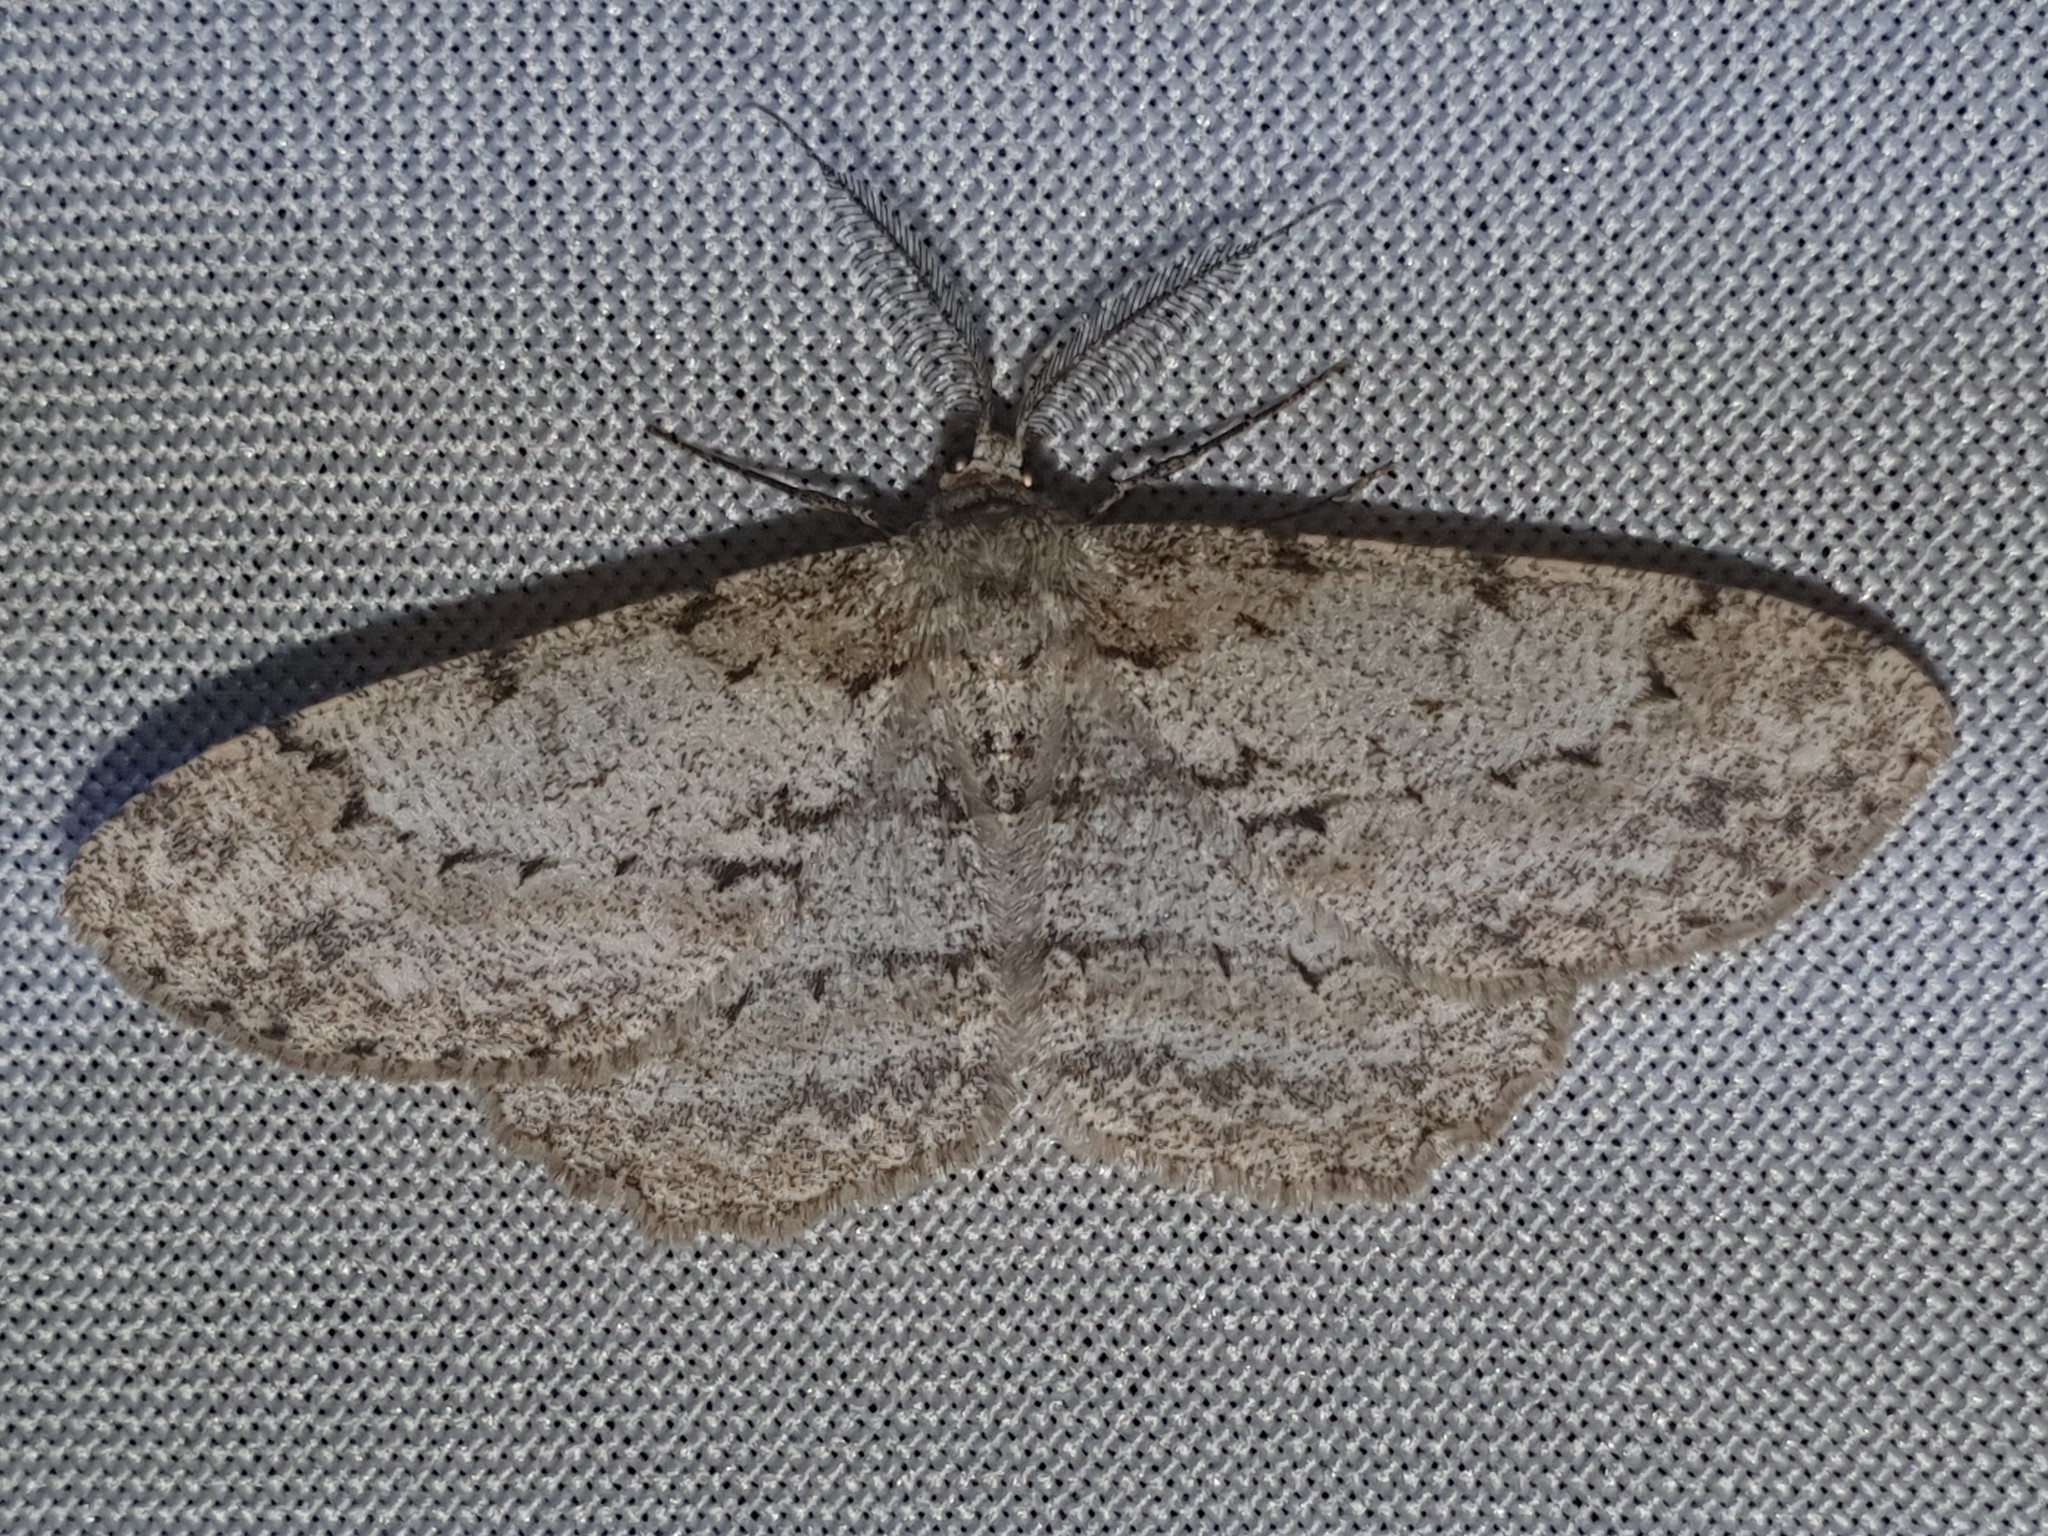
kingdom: Animalia
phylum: Arthropoda
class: Insecta
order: Lepidoptera
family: Geometridae
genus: Hypomecis
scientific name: Hypomecis punctinalis
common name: Pale oak beauty
